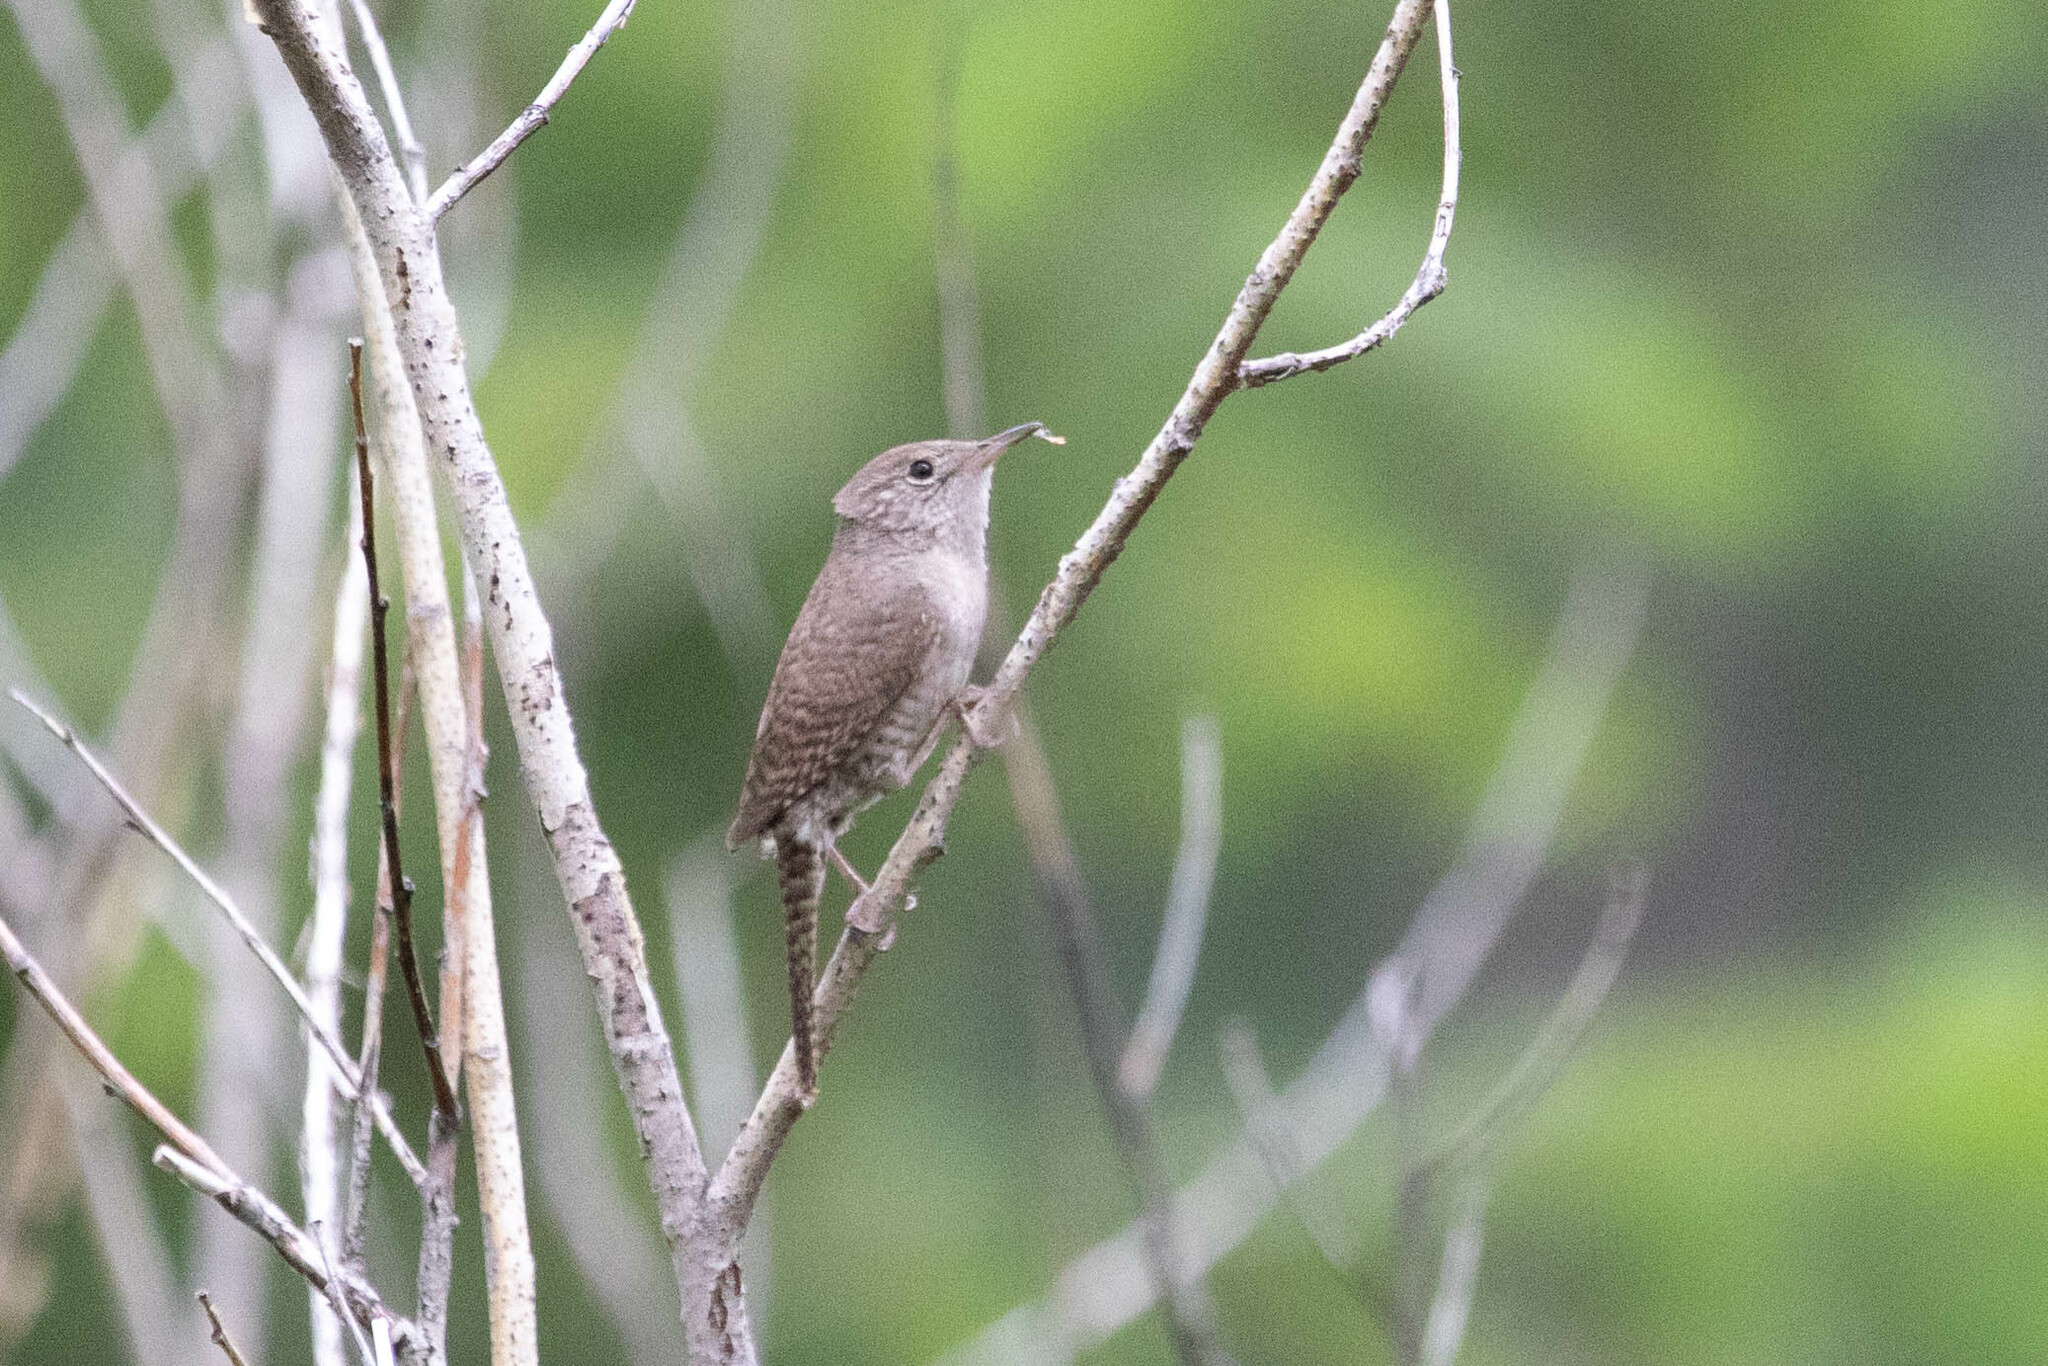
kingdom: Animalia
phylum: Chordata
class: Aves
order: Passeriformes
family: Troglodytidae
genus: Troglodytes
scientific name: Troglodytes aedon
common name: House wren
